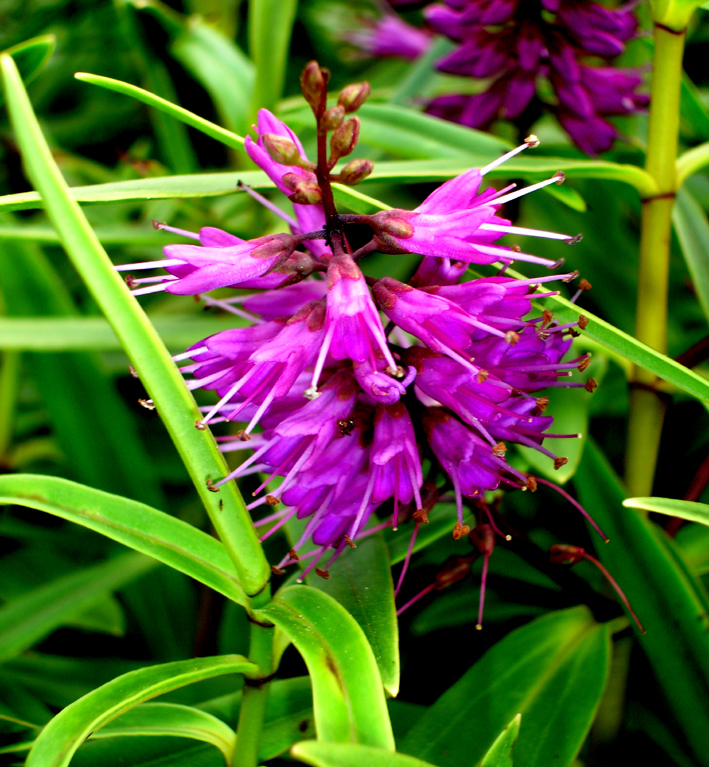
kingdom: Plantae
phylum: Tracheophyta
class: Magnoliopsida
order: Lamiales
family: Plantaginaceae
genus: Veronica
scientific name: Veronica macrocarpa
